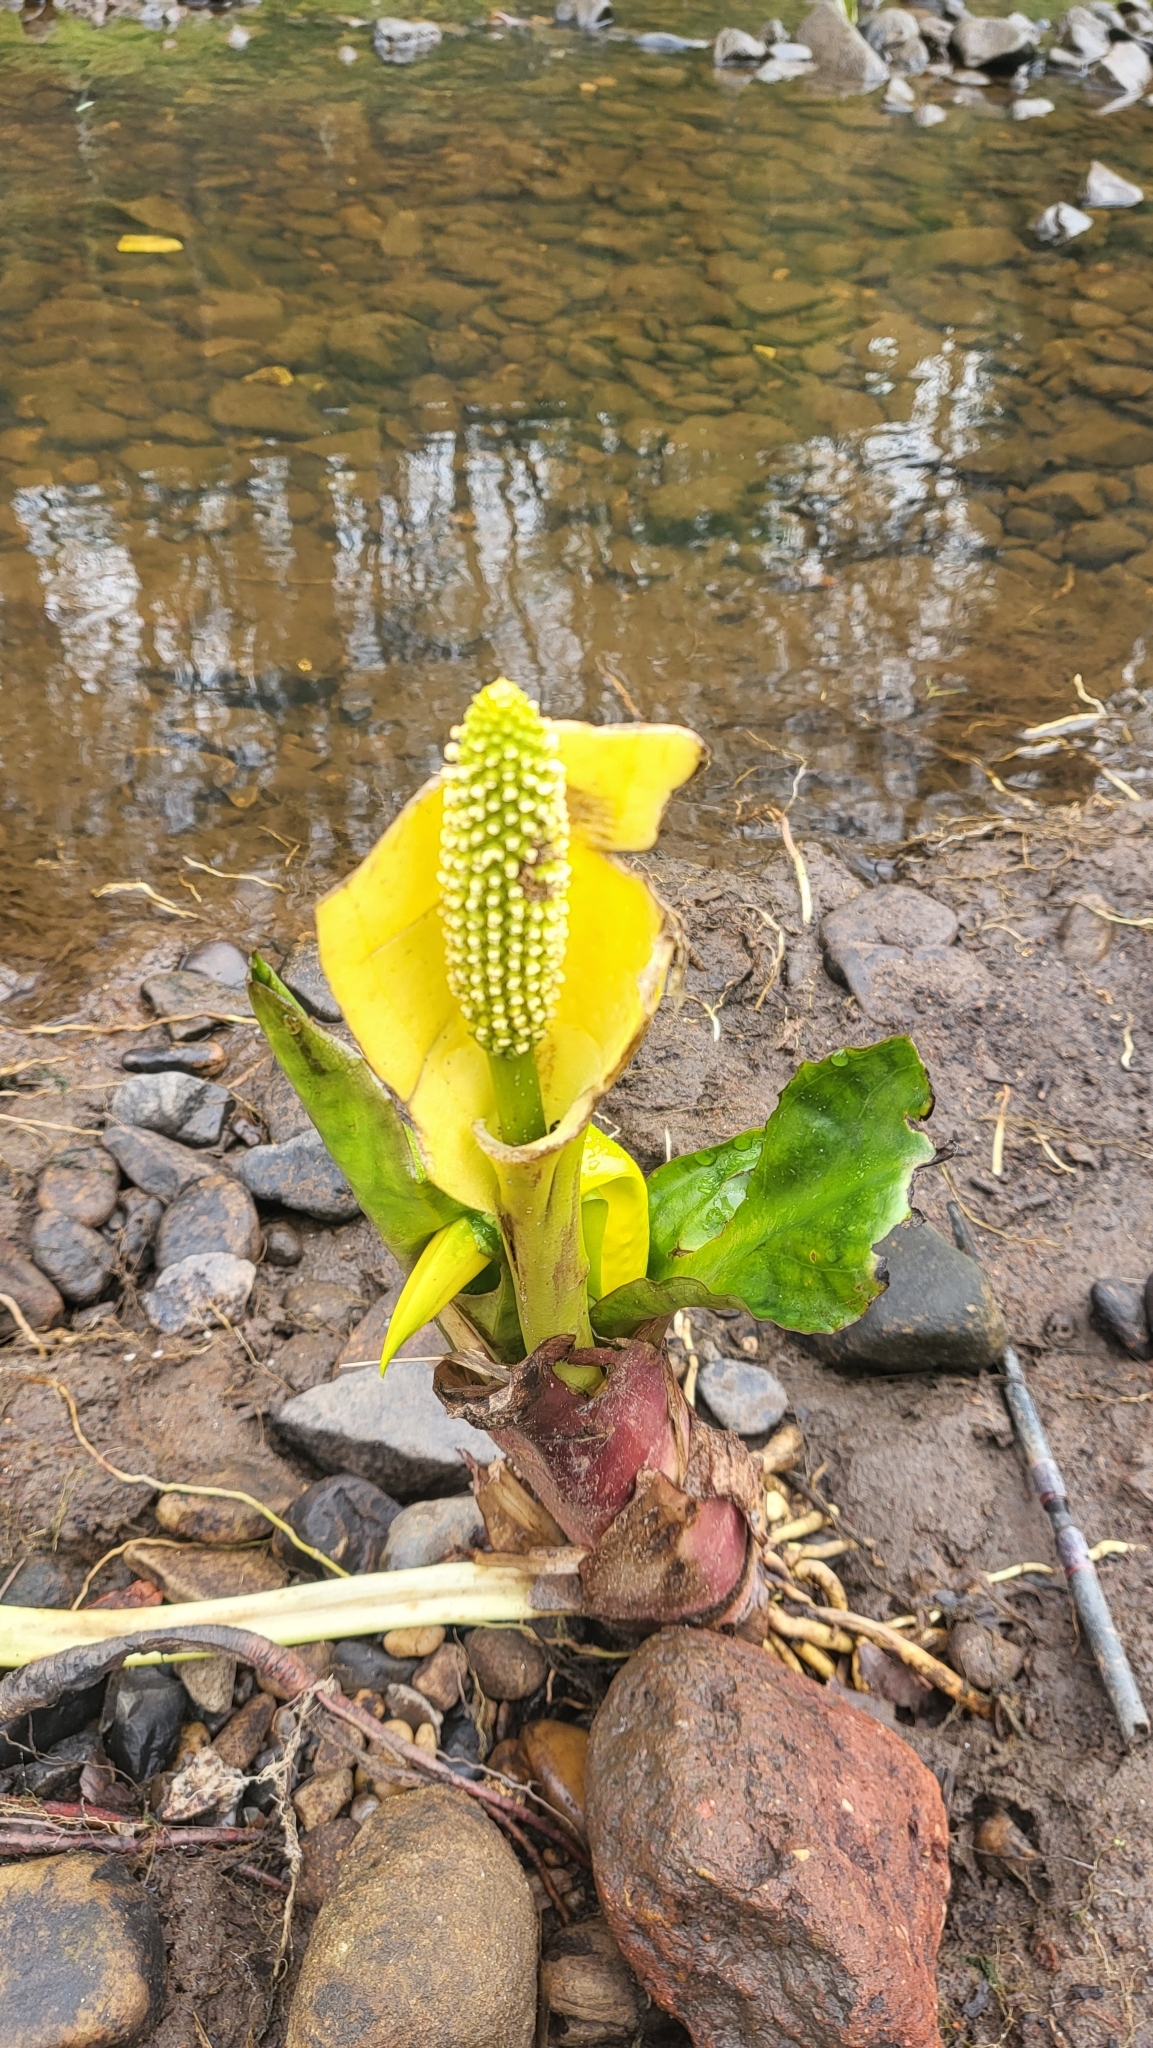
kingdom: Plantae
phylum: Tracheophyta
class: Liliopsida
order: Alismatales
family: Araceae
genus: Lysichiton
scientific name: Lysichiton americanus
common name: American skunk cabbage
